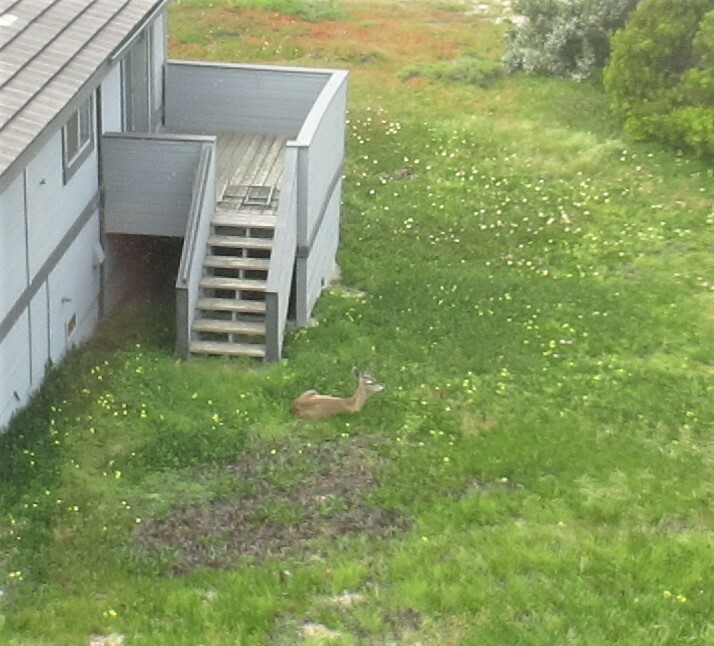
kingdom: Animalia
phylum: Chordata
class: Mammalia
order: Artiodactyla
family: Cervidae
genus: Odocoileus
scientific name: Odocoileus hemionus
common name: Mule deer
